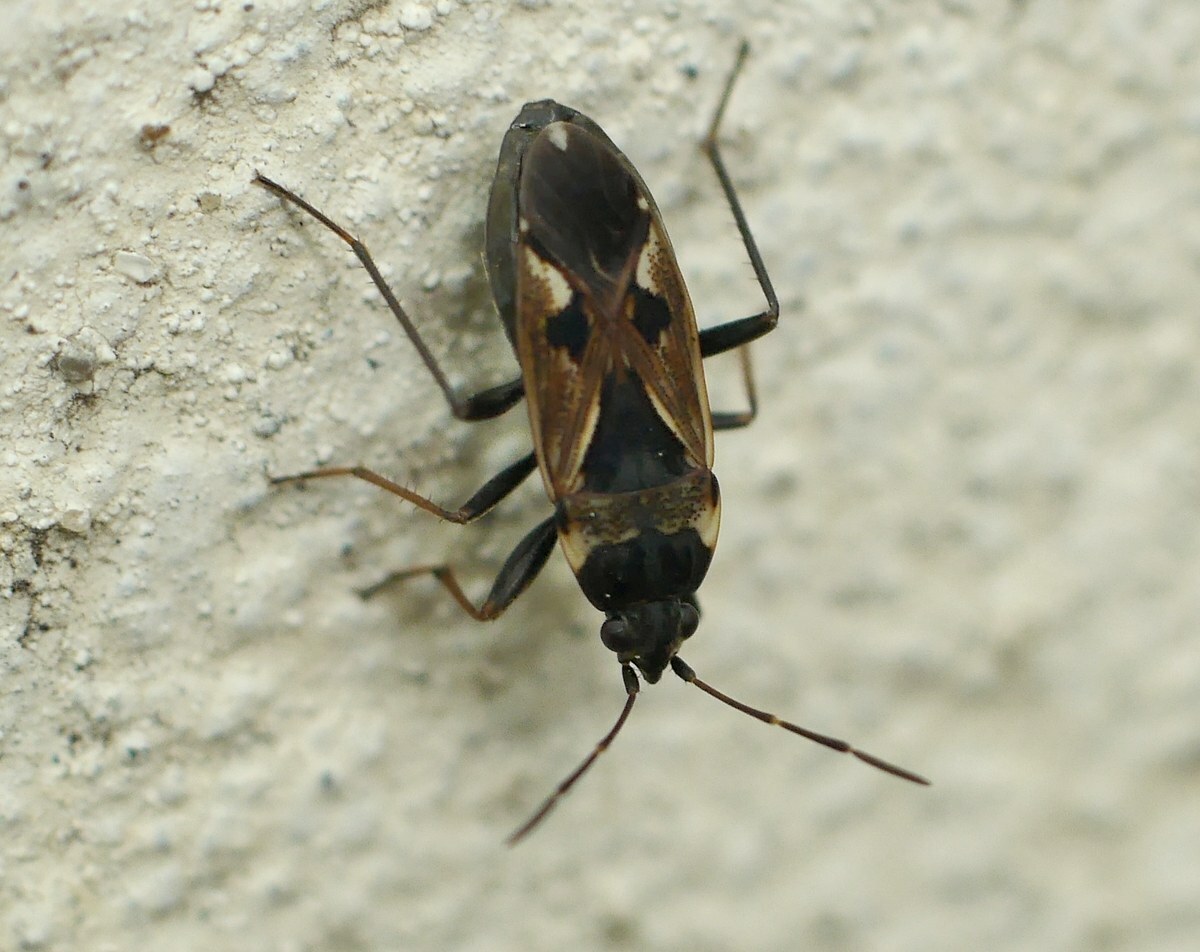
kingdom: Animalia
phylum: Arthropoda
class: Insecta
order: Hemiptera
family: Rhyparochromidae
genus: Rhyparochromus
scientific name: Rhyparochromus vulgaris
